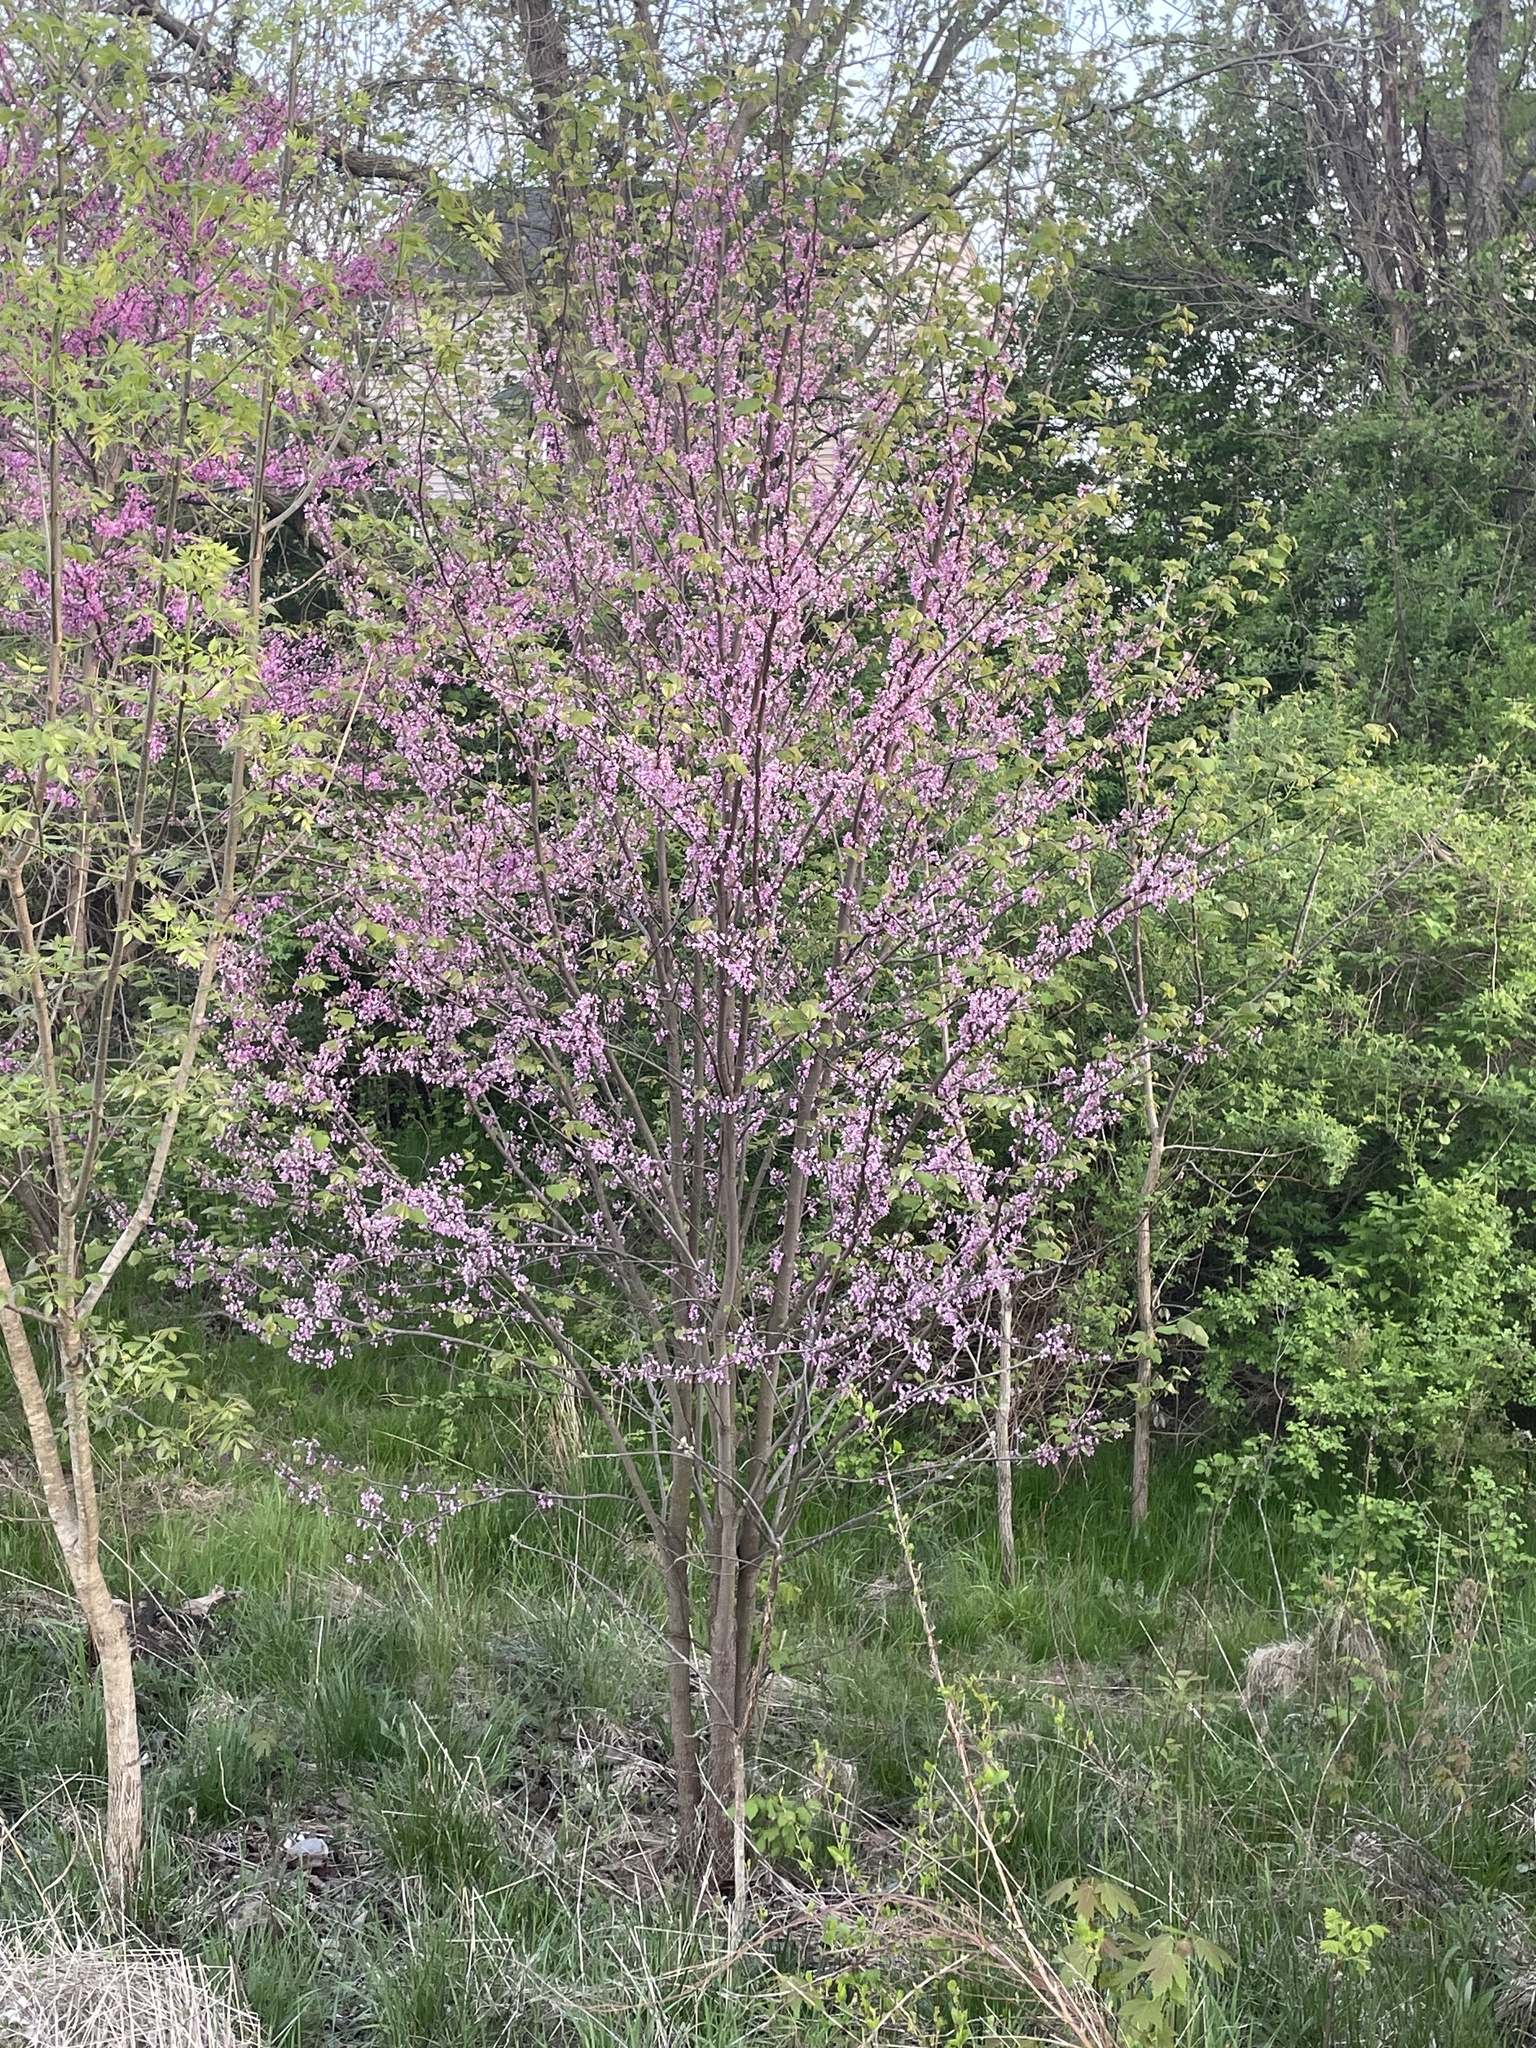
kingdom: Plantae
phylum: Tracheophyta
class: Magnoliopsida
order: Fabales
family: Fabaceae
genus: Cercis
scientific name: Cercis canadensis
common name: Eastern redbud
